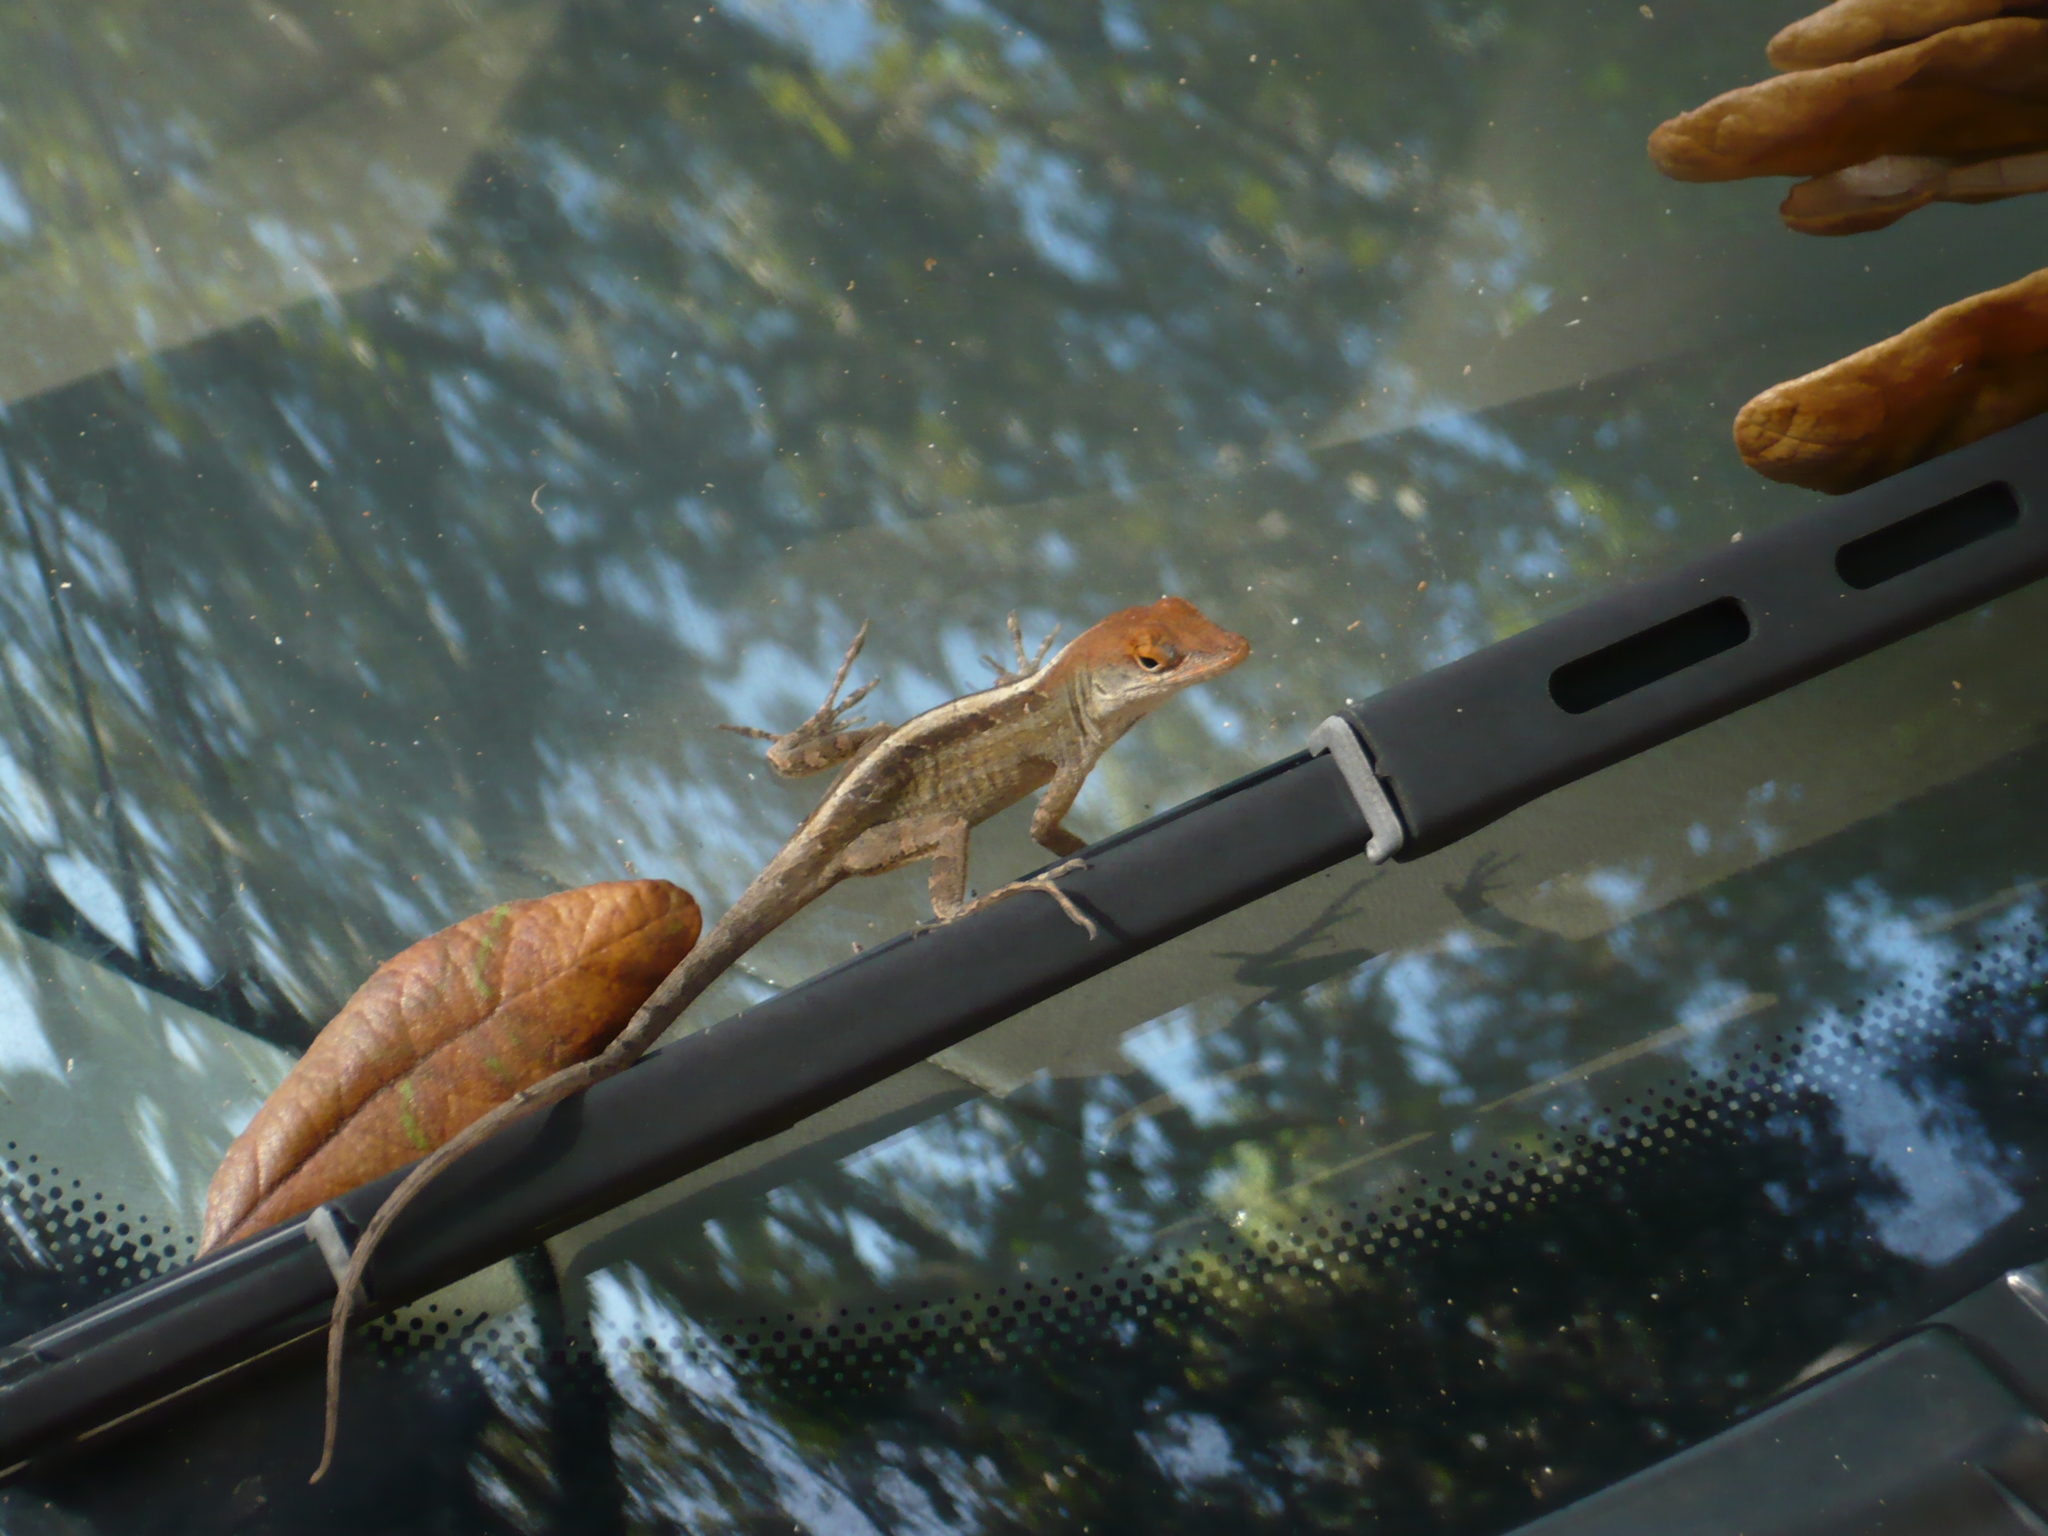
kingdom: Animalia
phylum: Chordata
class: Squamata
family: Dactyloidae
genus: Anolis
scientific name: Anolis sagrei
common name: Brown anole
